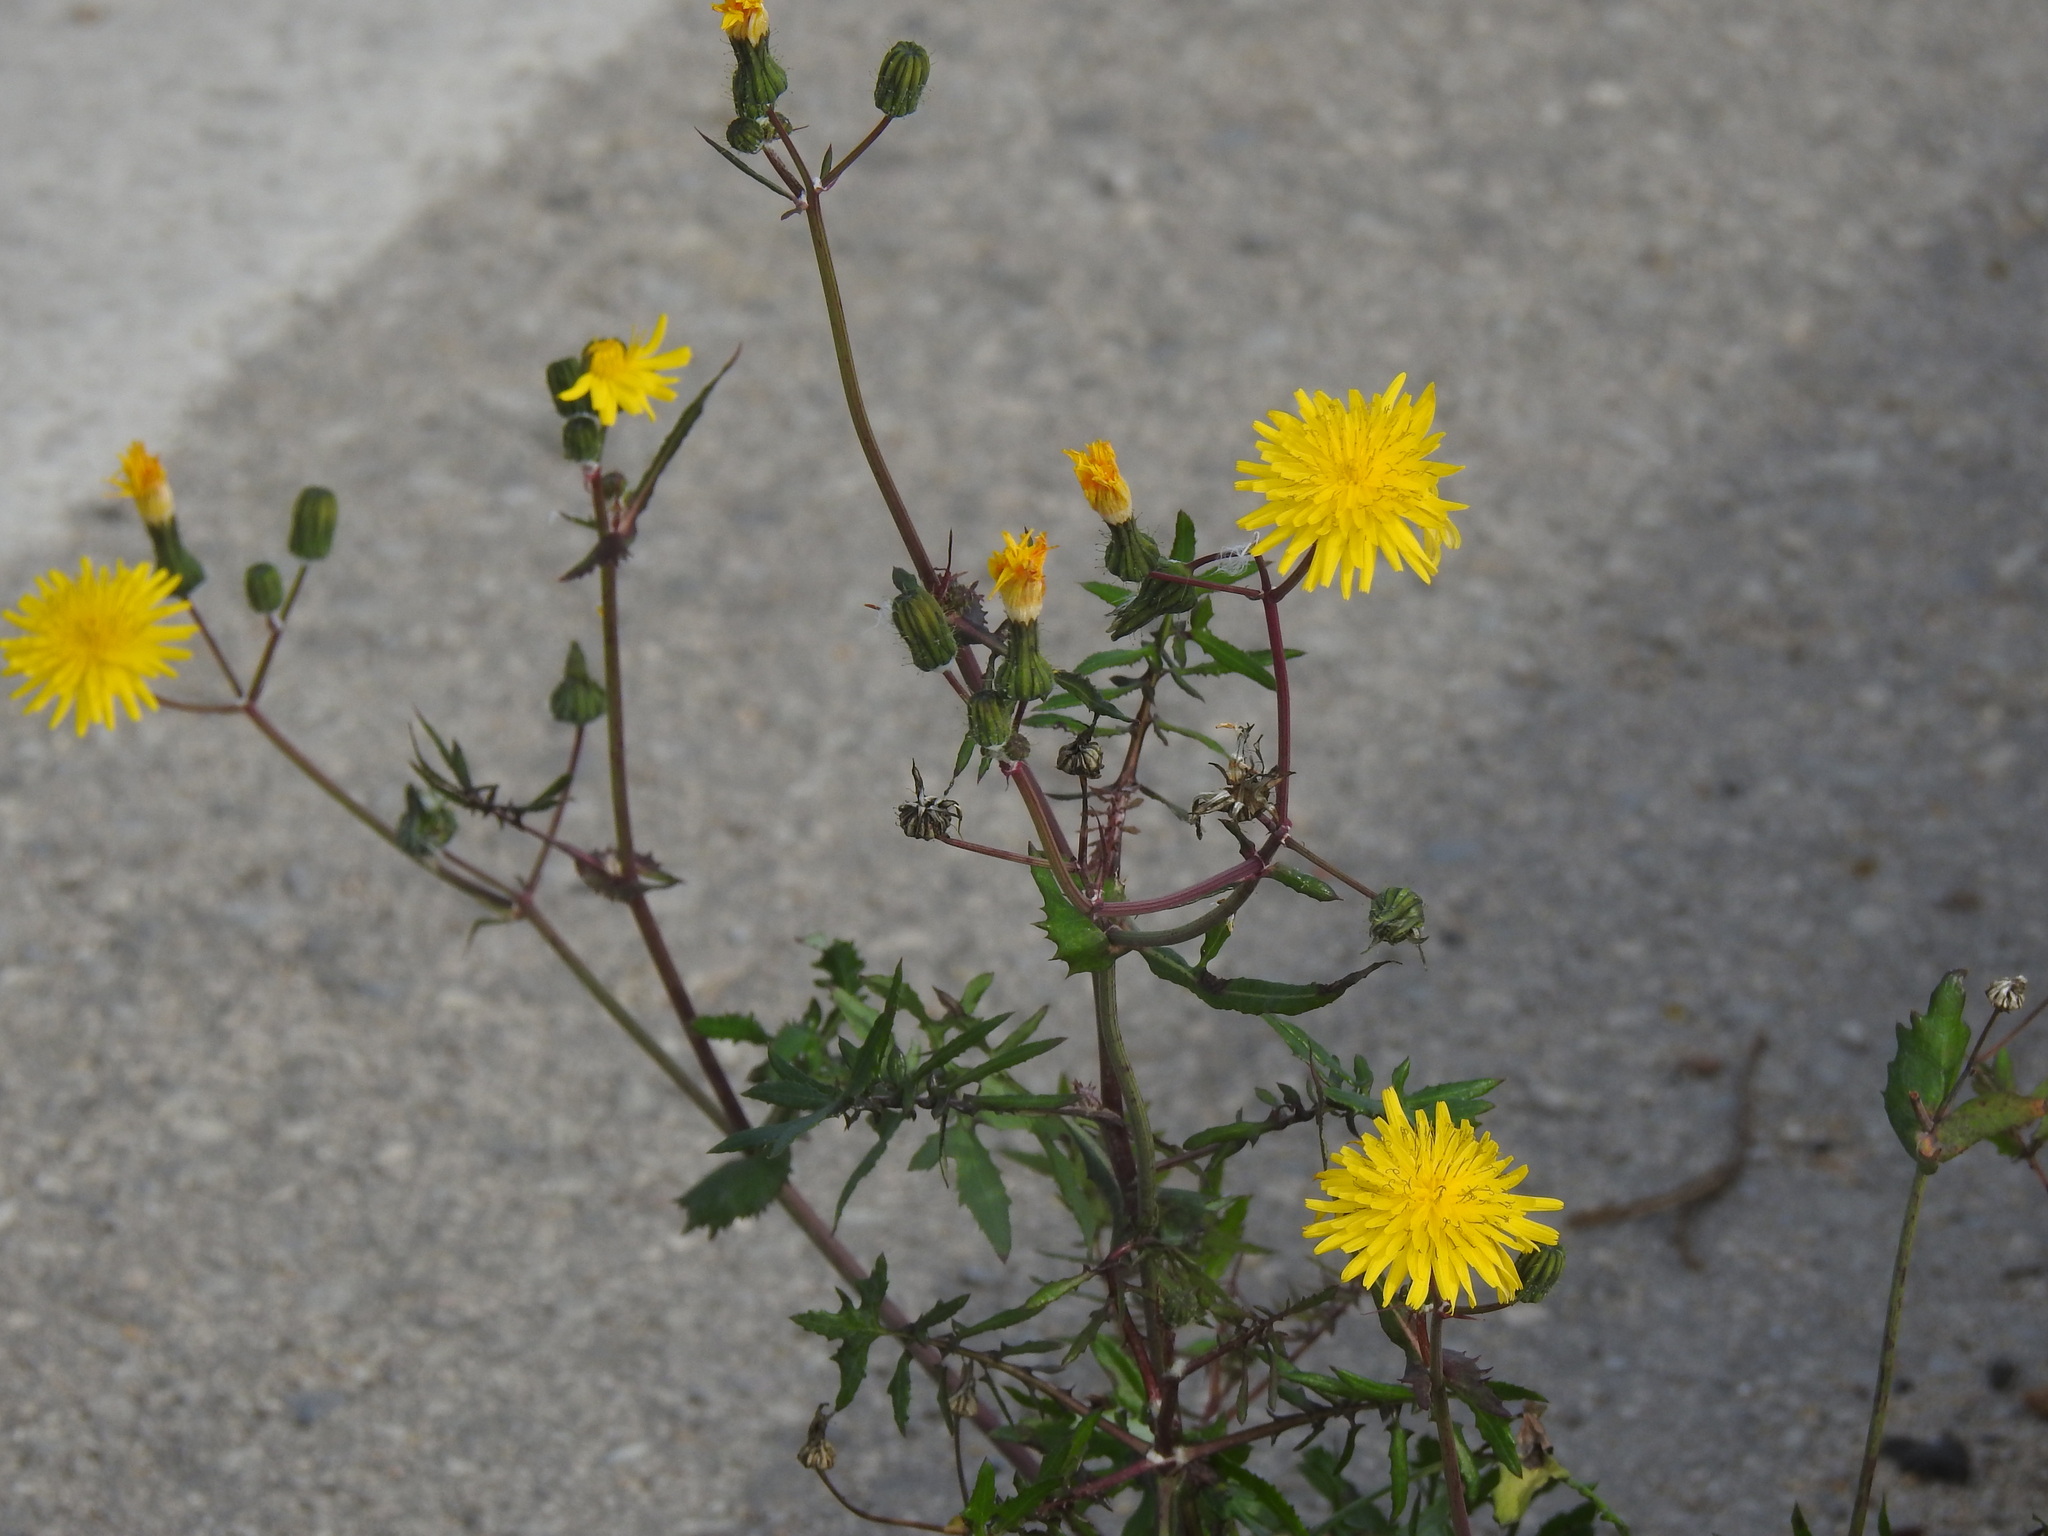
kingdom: Plantae
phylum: Tracheophyta
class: Magnoliopsida
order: Asterales
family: Asteraceae
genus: Sonchus
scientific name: Sonchus tenerrimus
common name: Clammy sowthistle
